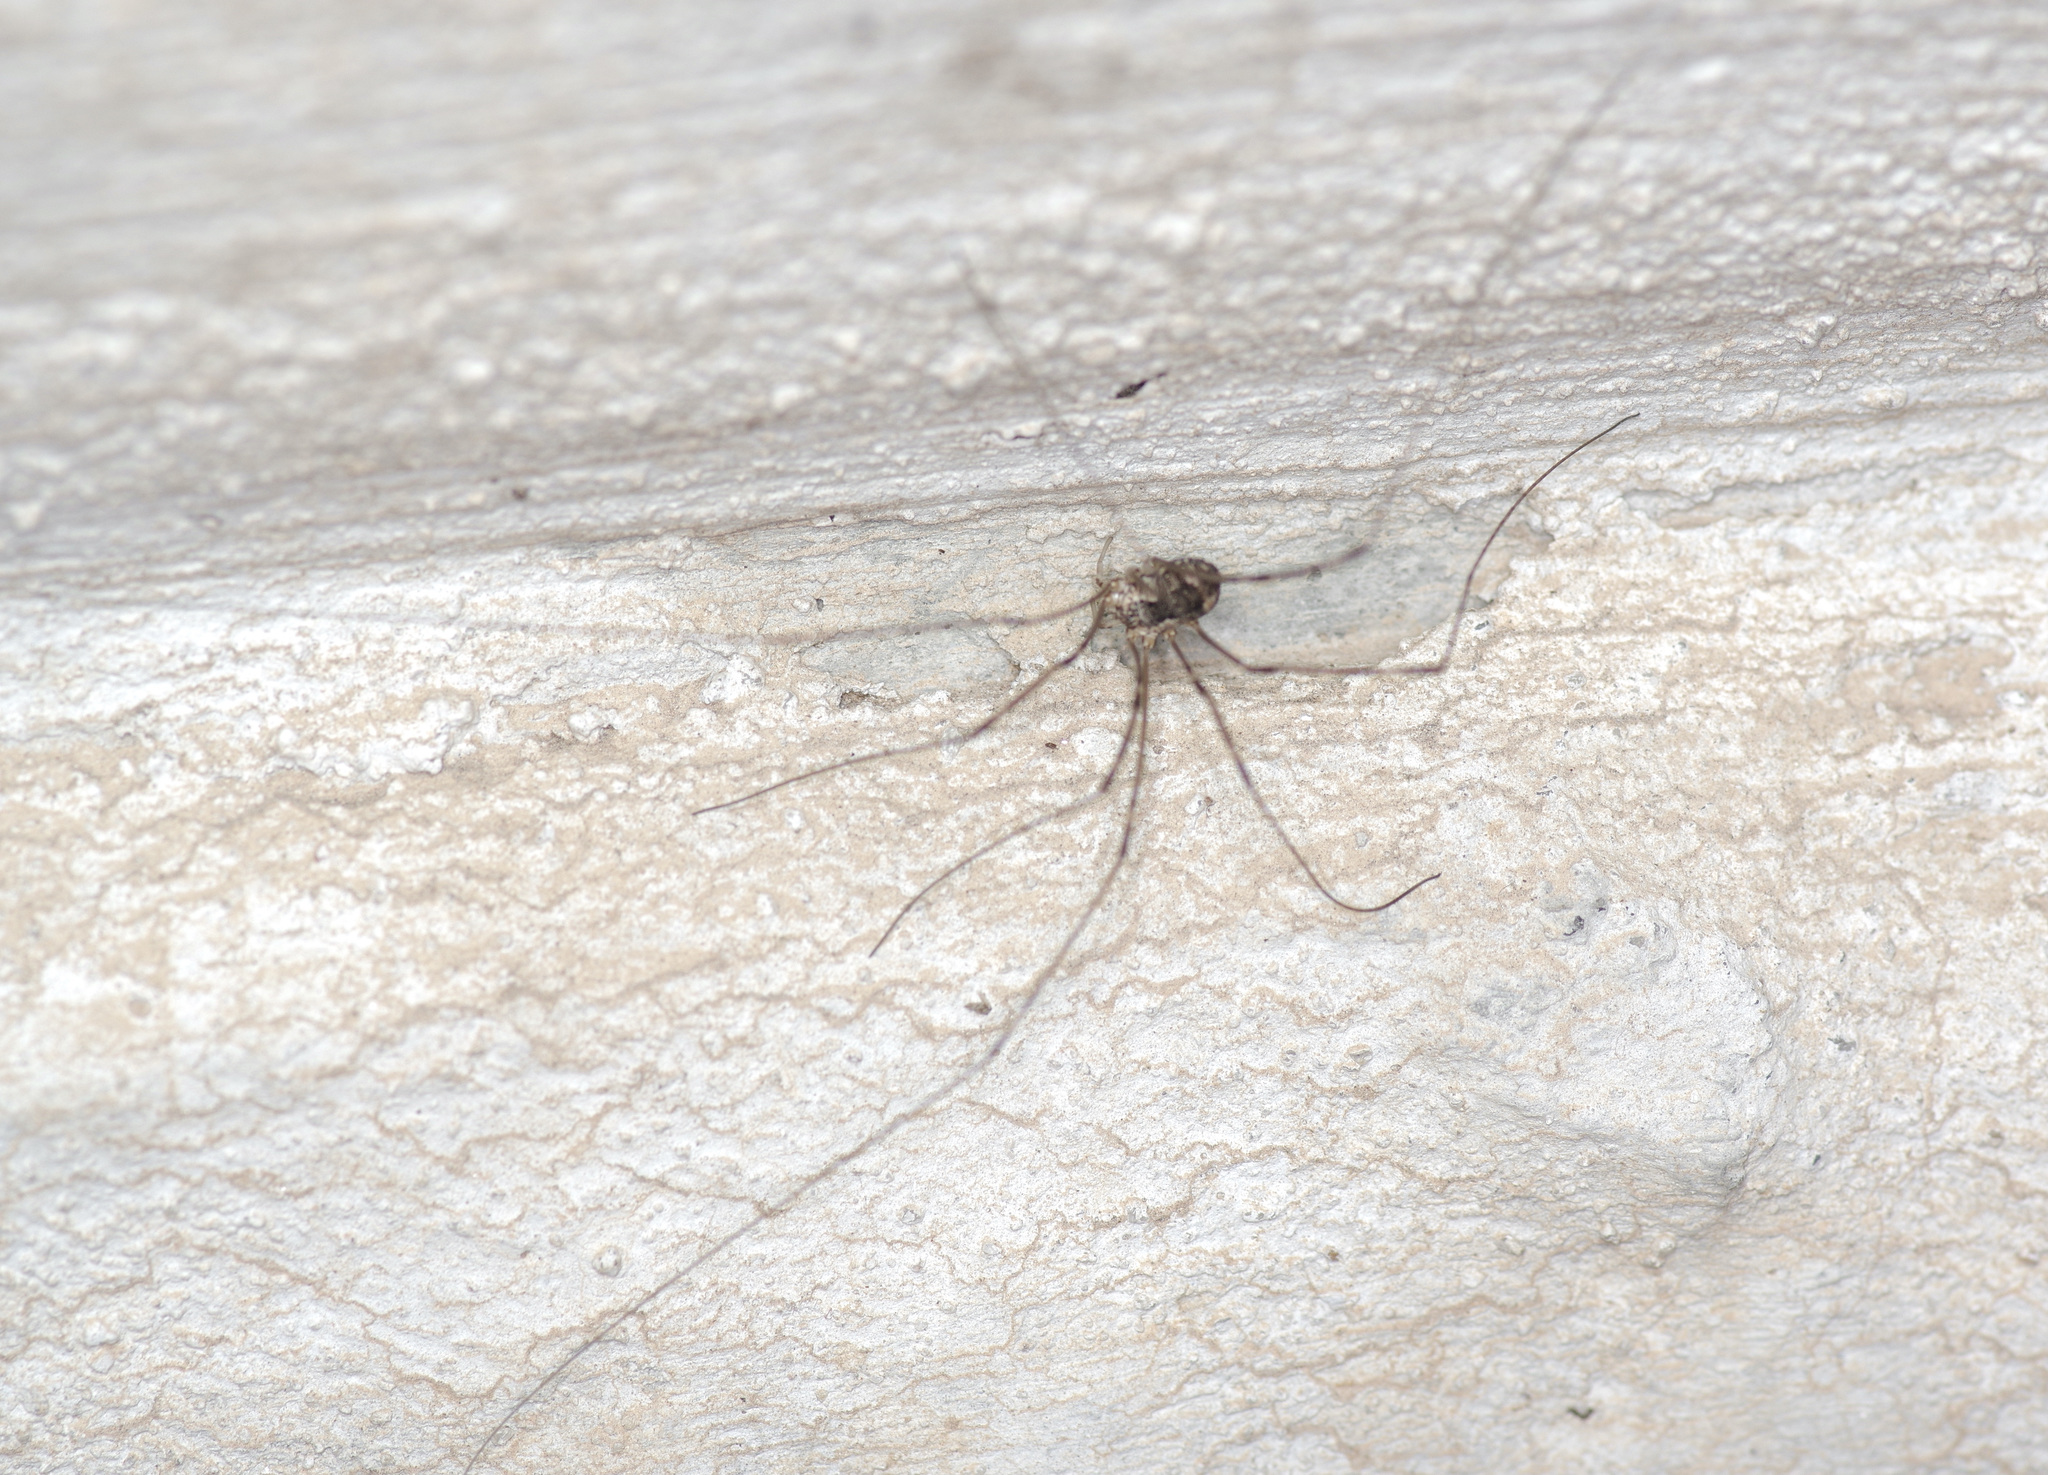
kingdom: Animalia
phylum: Arthropoda
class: Arachnida
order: Opiliones
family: Sclerosomatidae
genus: Leiobunum
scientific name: Leiobunum townsendi
